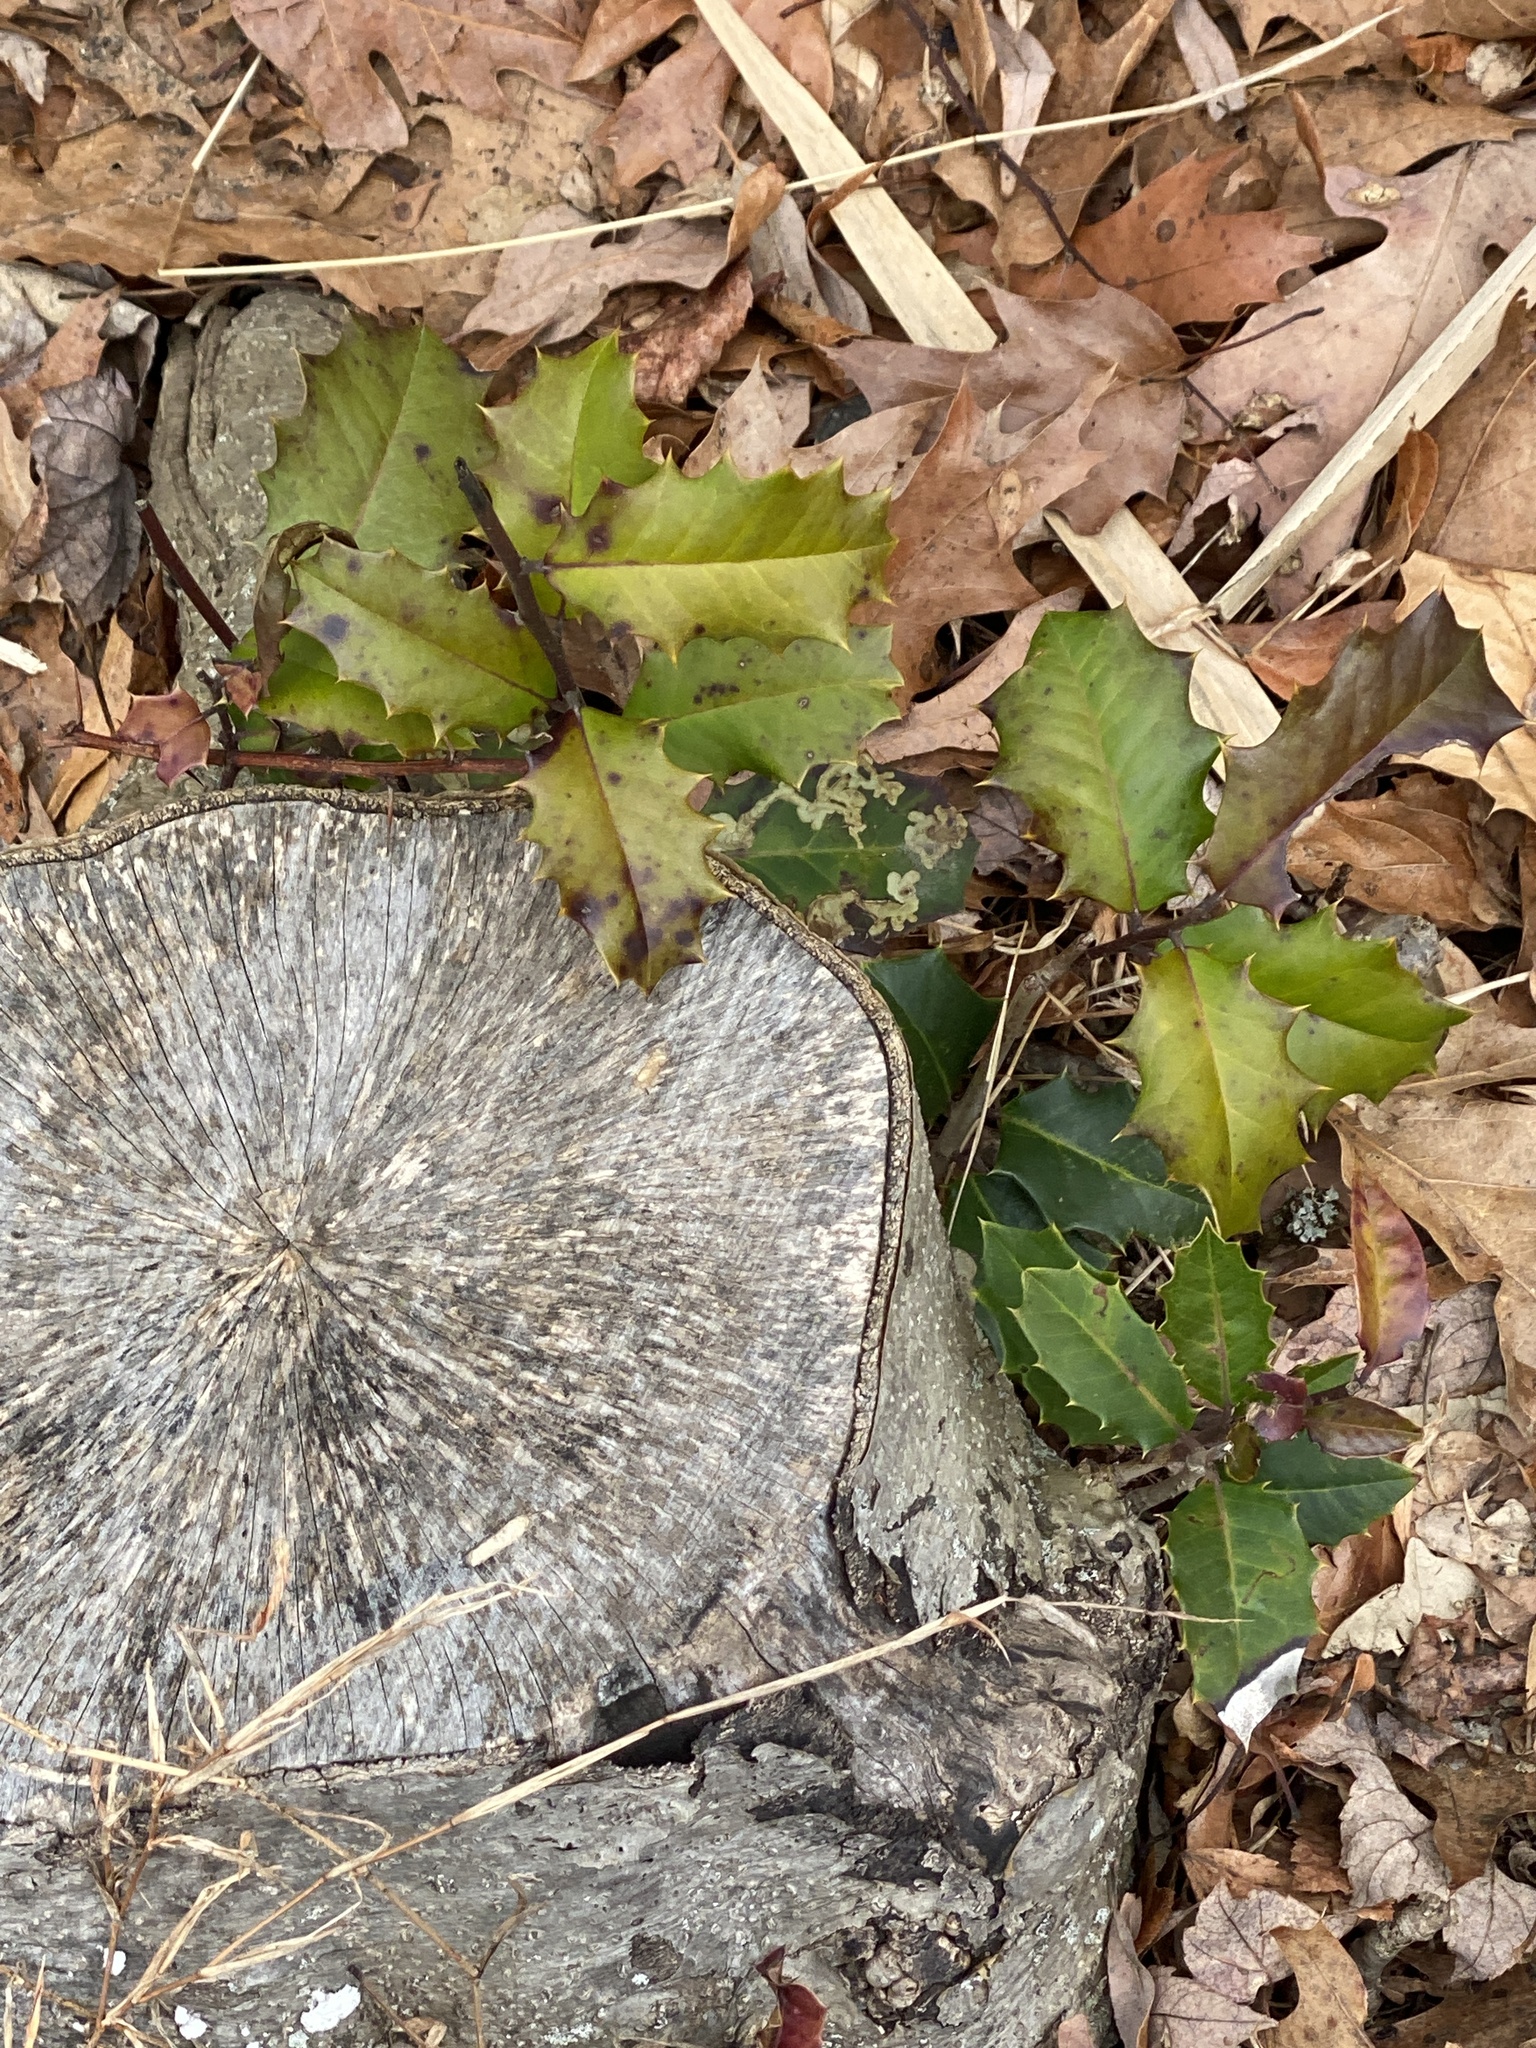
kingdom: Plantae
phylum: Tracheophyta
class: Magnoliopsida
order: Aquifoliales
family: Aquifoliaceae
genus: Ilex
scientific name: Ilex opaca
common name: American holly
